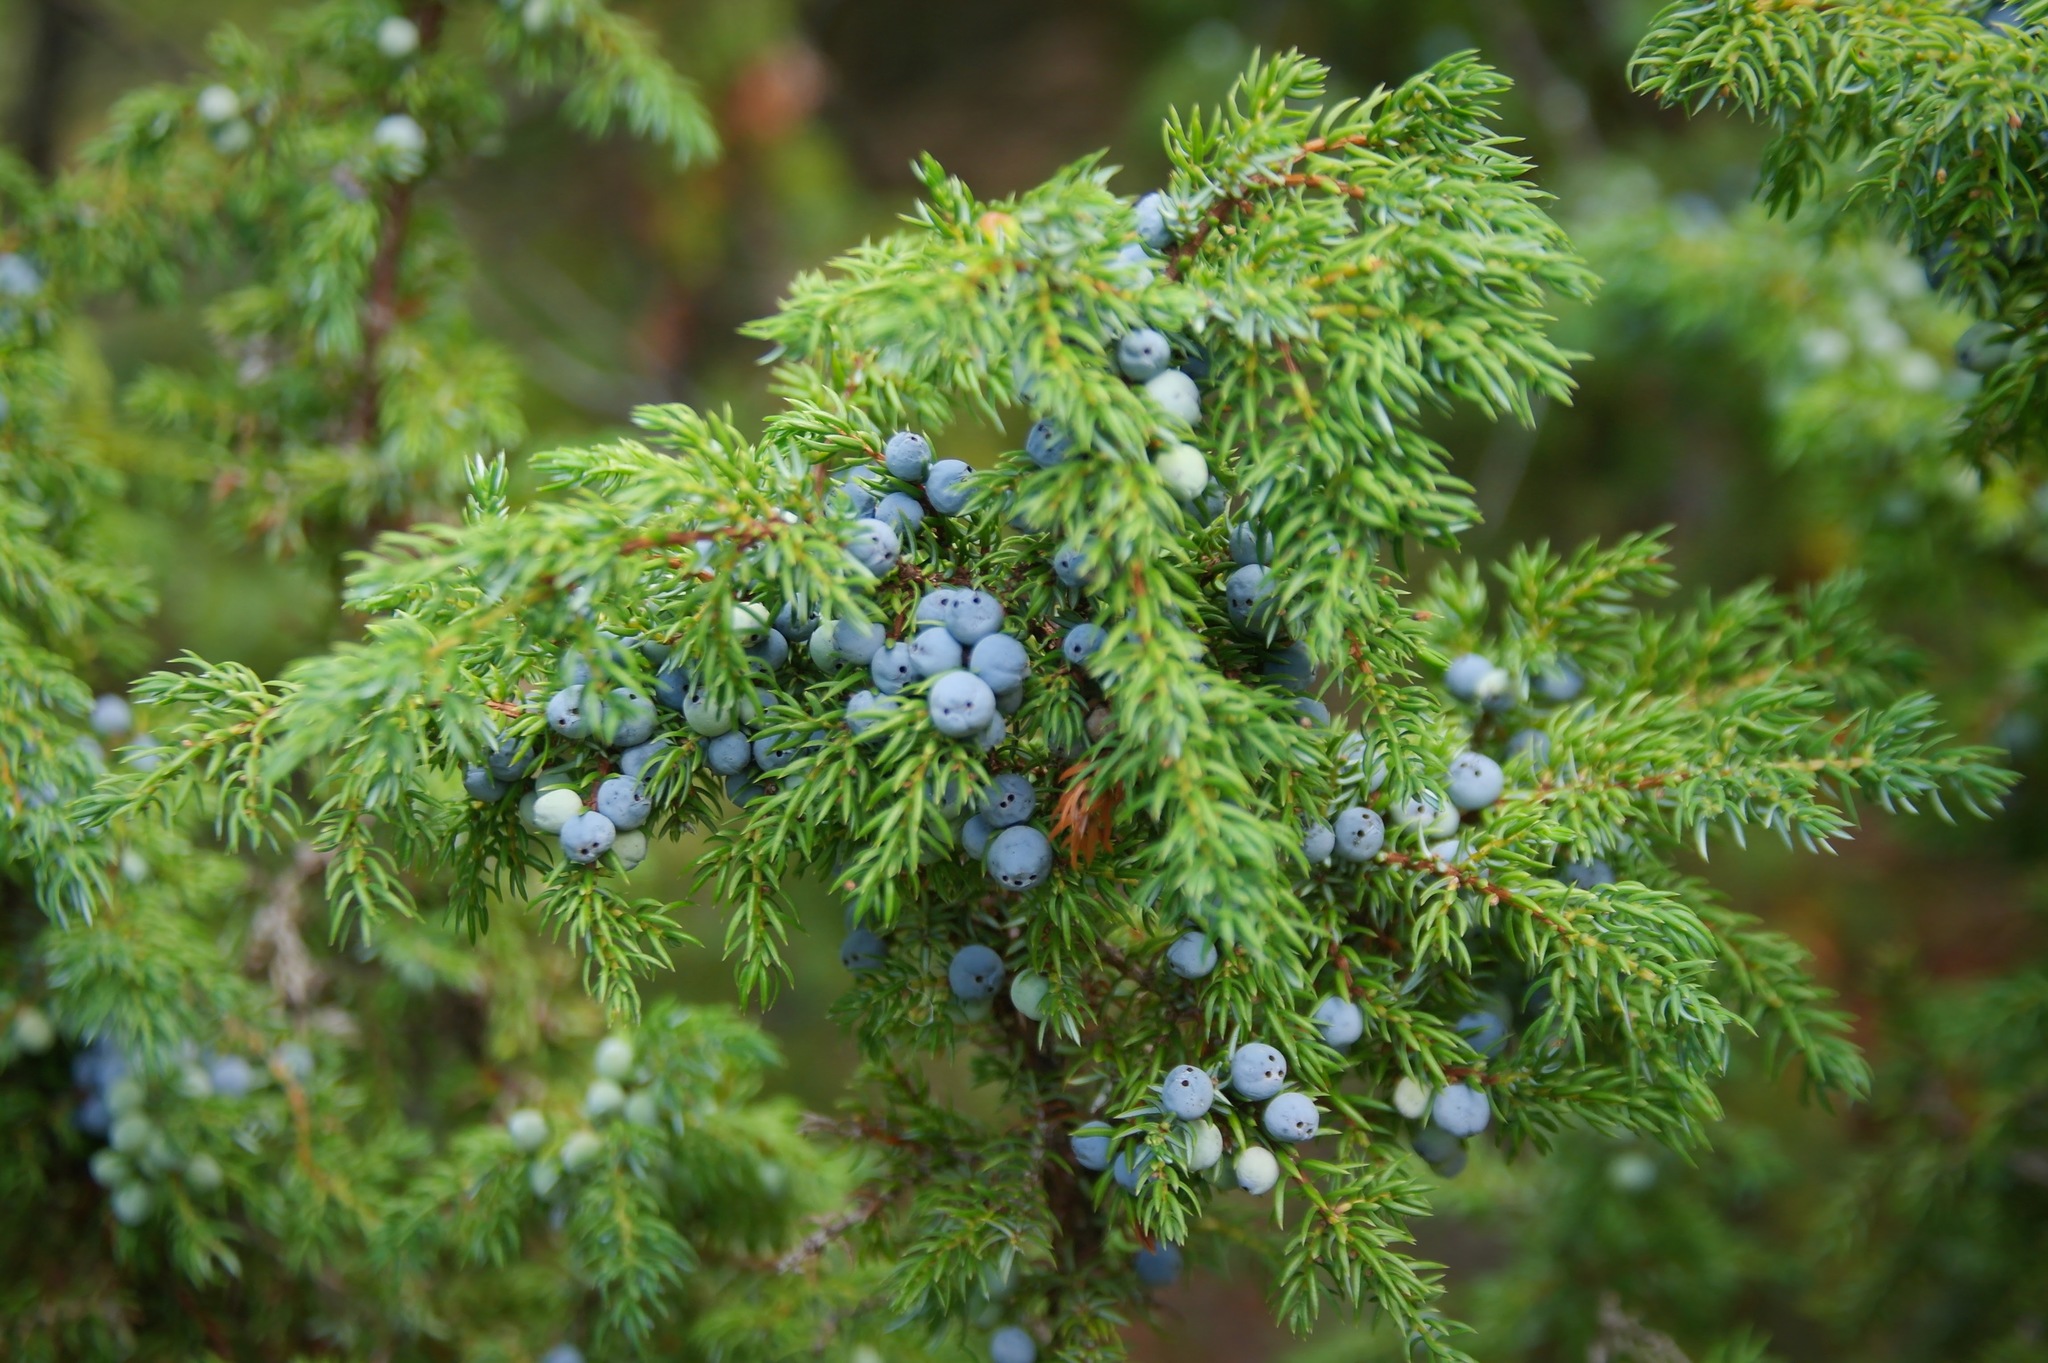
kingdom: Plantae
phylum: Tracheophyta
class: Pinopsida
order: Pinales
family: Cupressaceae
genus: Juniperus
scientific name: Juniperus communis
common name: Common juniper
